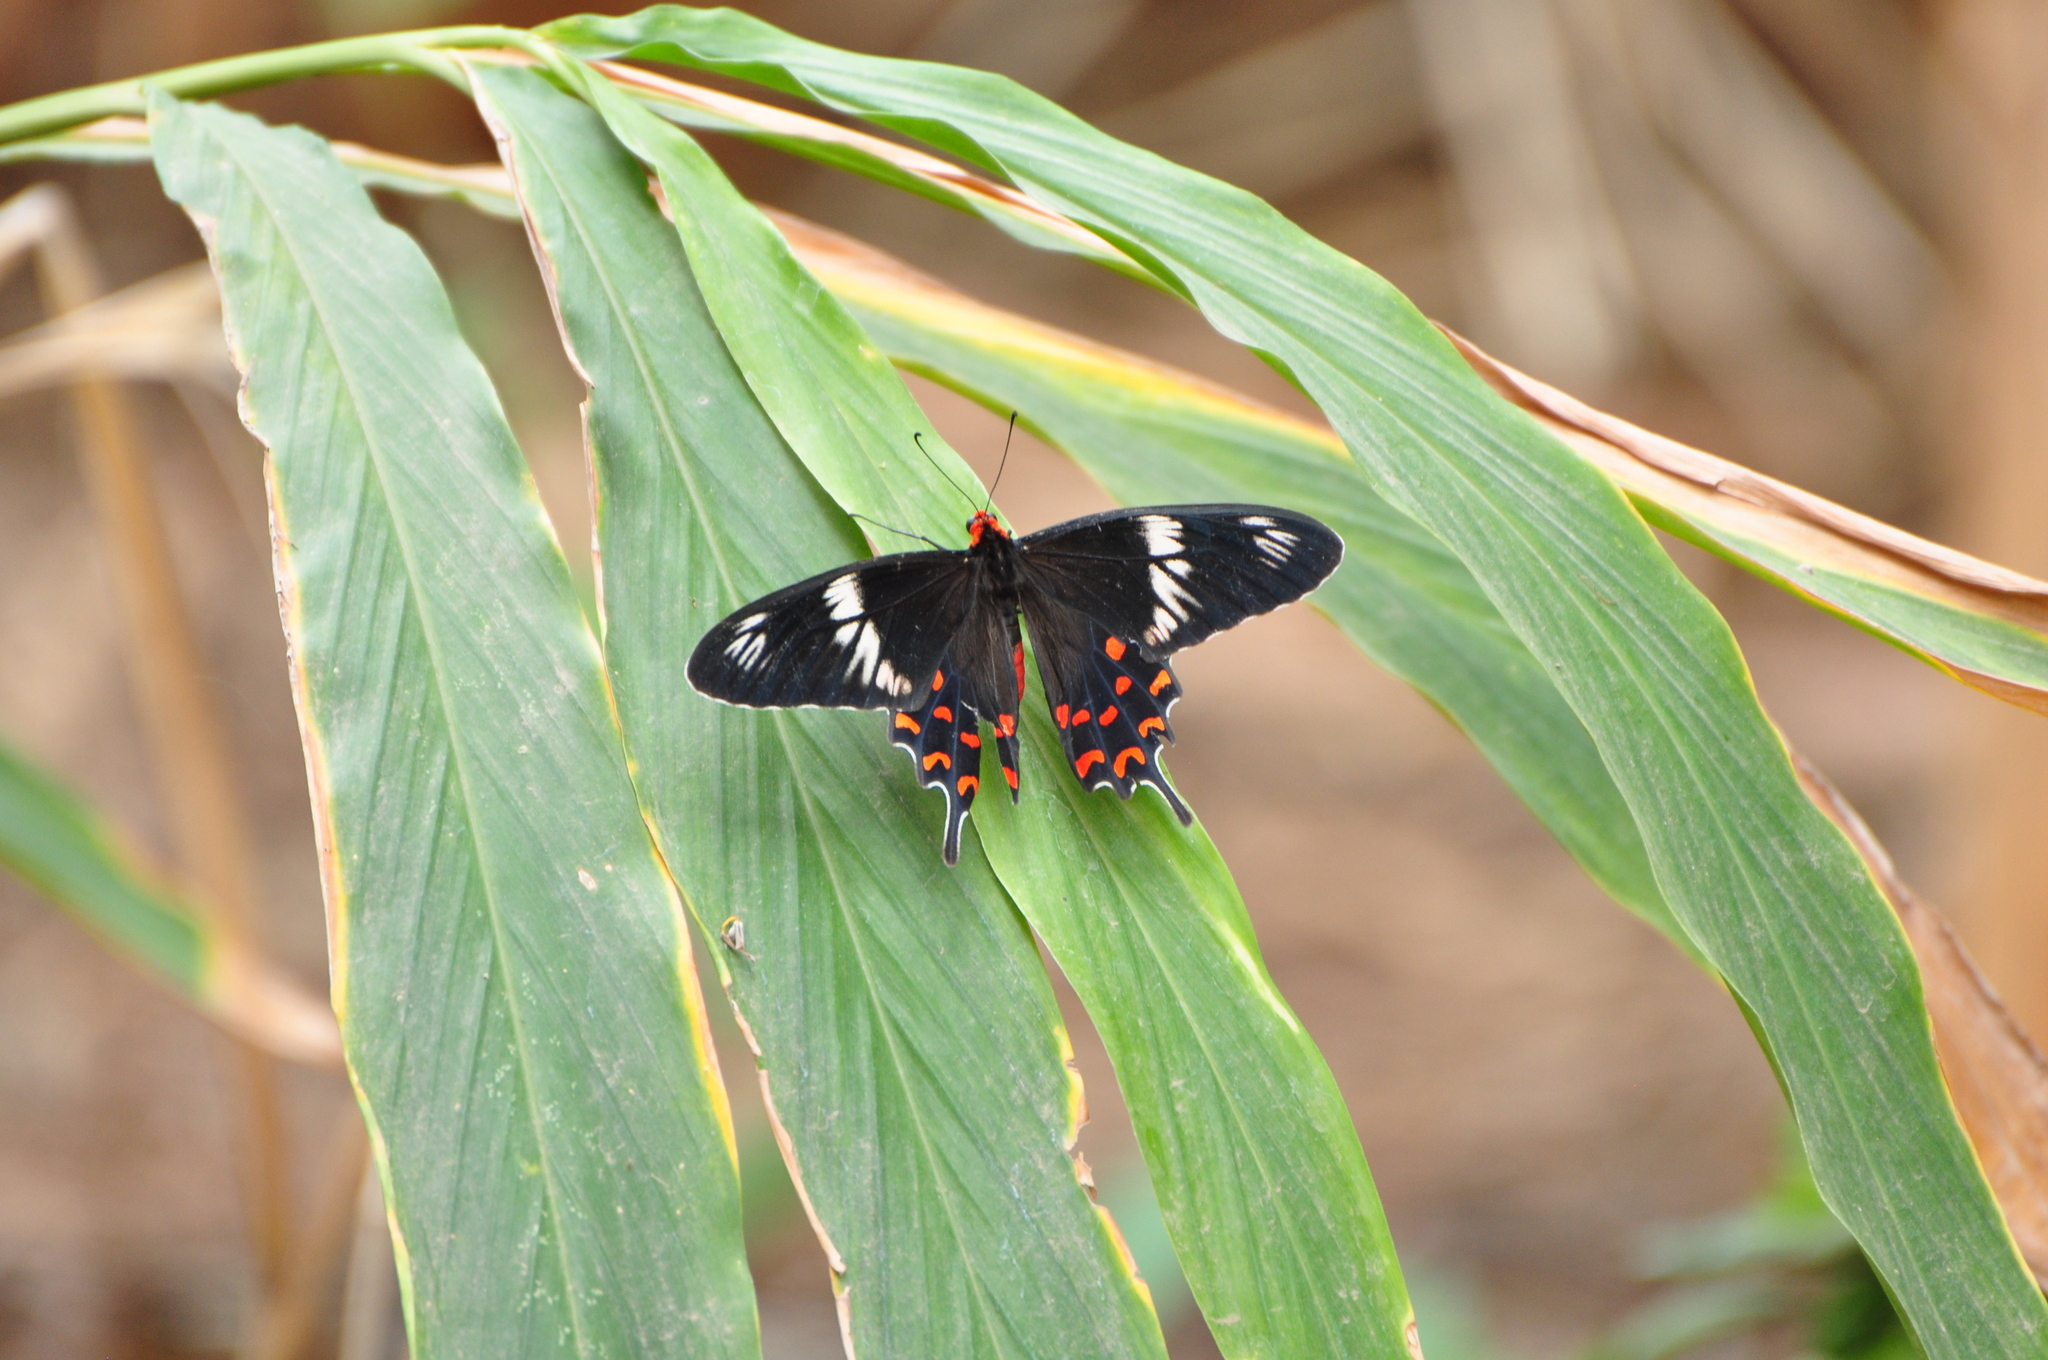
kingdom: Animalia
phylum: Arthropoda
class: Insecta
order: Lepidoptera
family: Papilionidae
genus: Pachliopta
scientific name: Pachliopta hector
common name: Crimson rose
